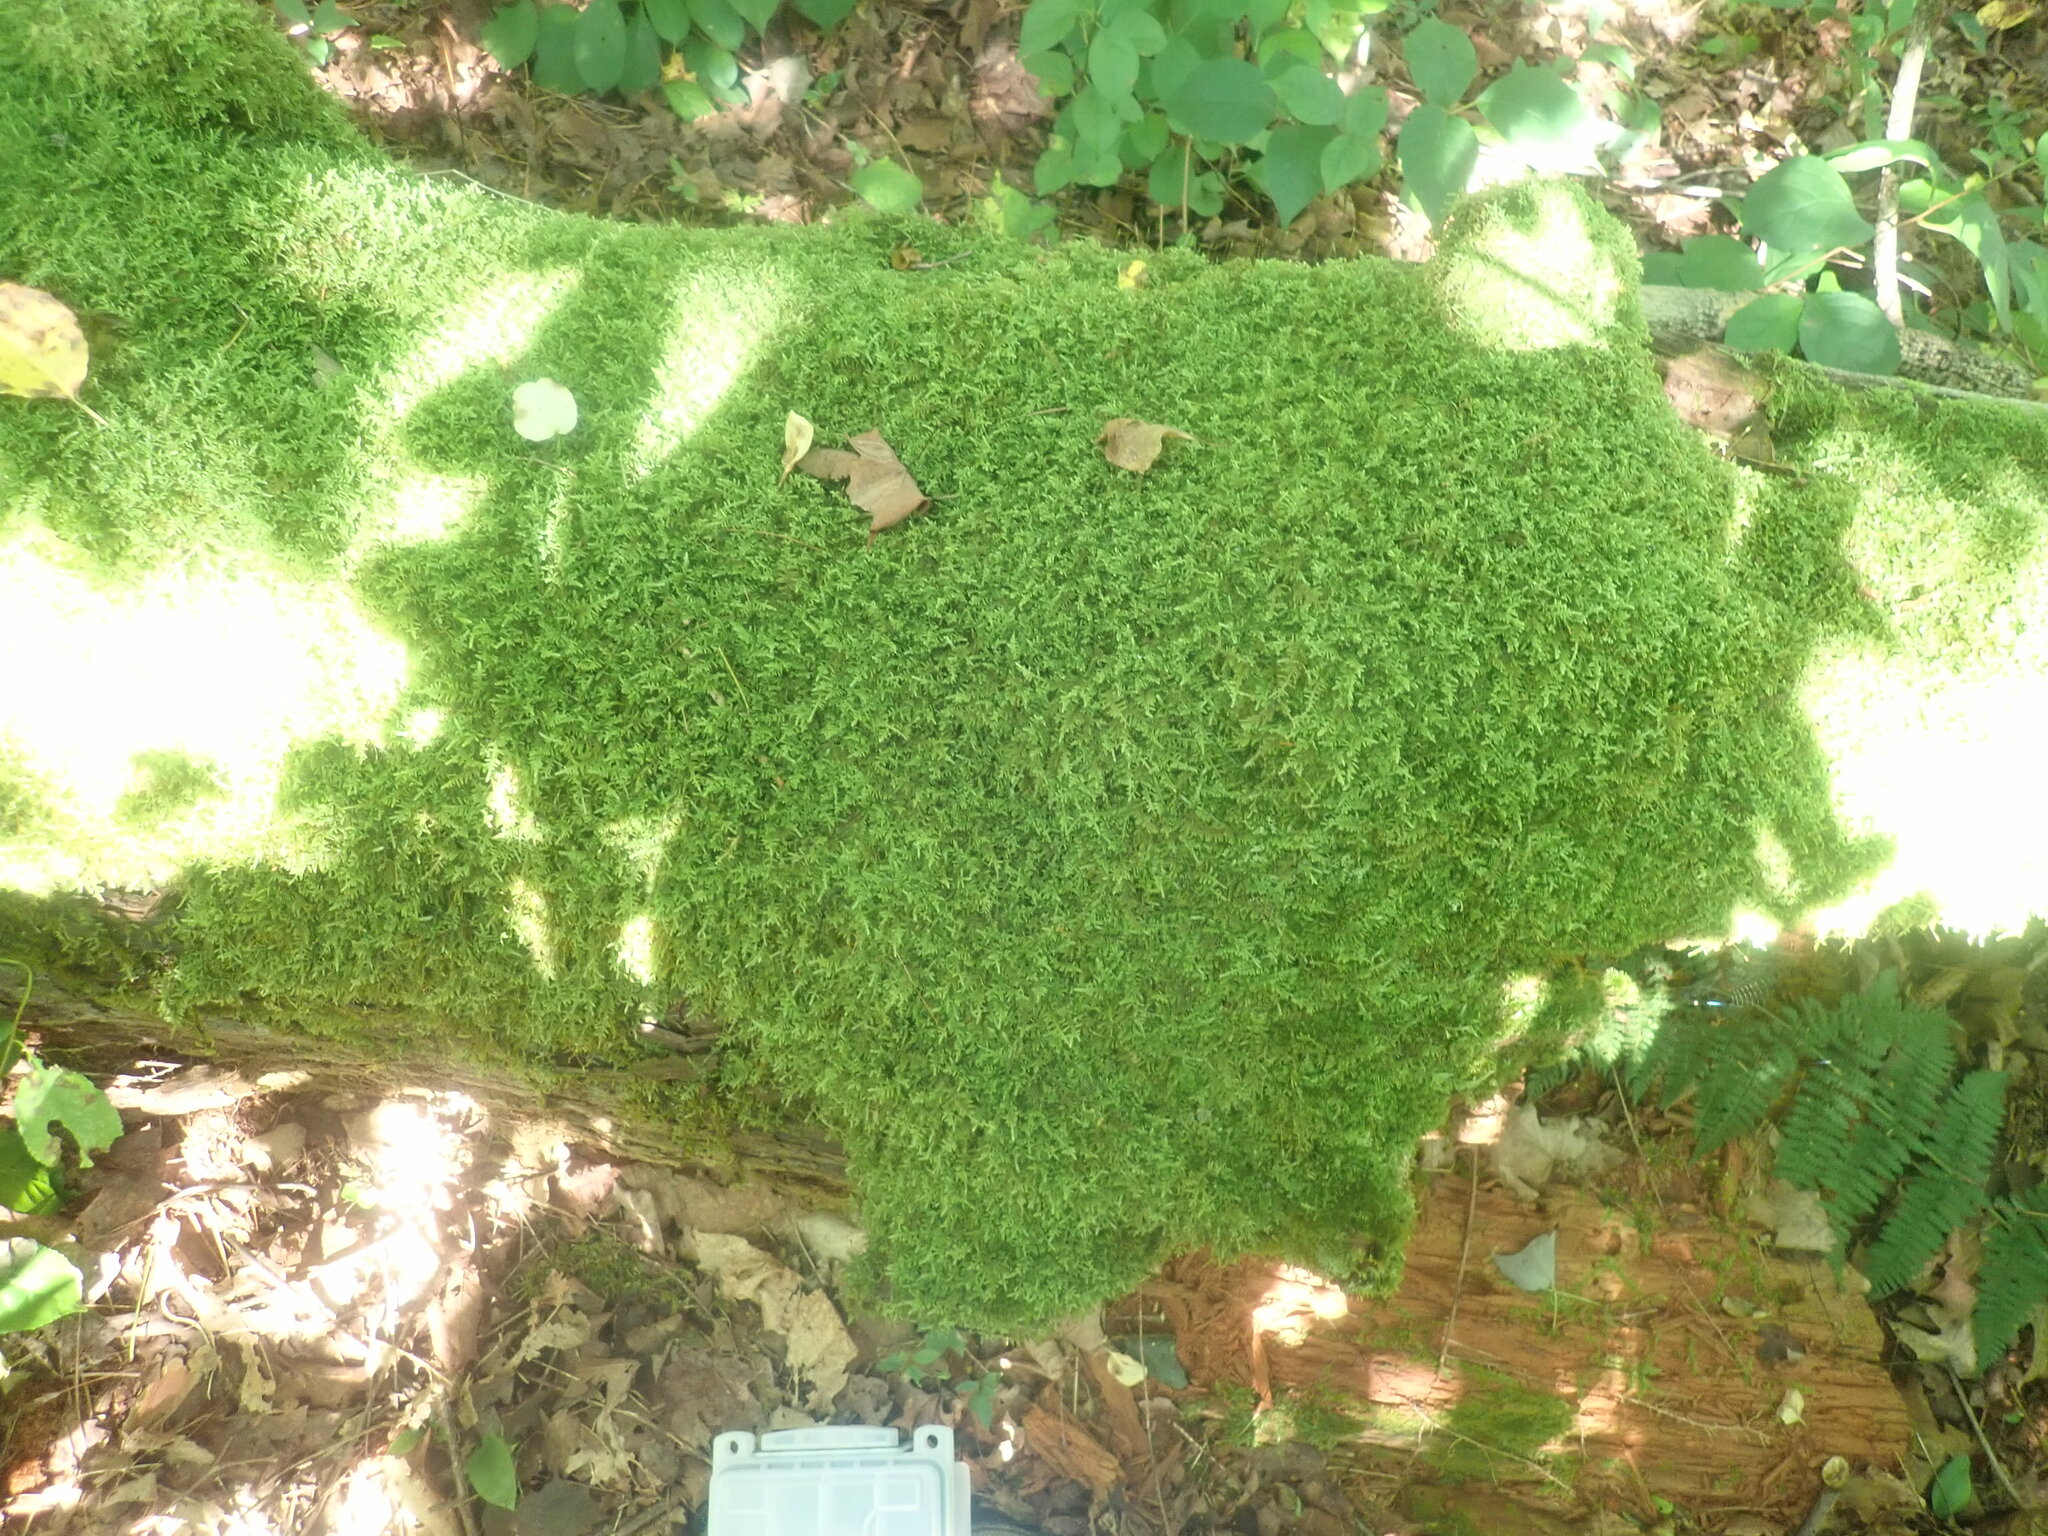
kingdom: Plantae
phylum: Bryophyta
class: Bryopsida
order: Hypnales
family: Callicladiaceae
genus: Callicladium
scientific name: Callicladium imponens
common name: Brocade moss
